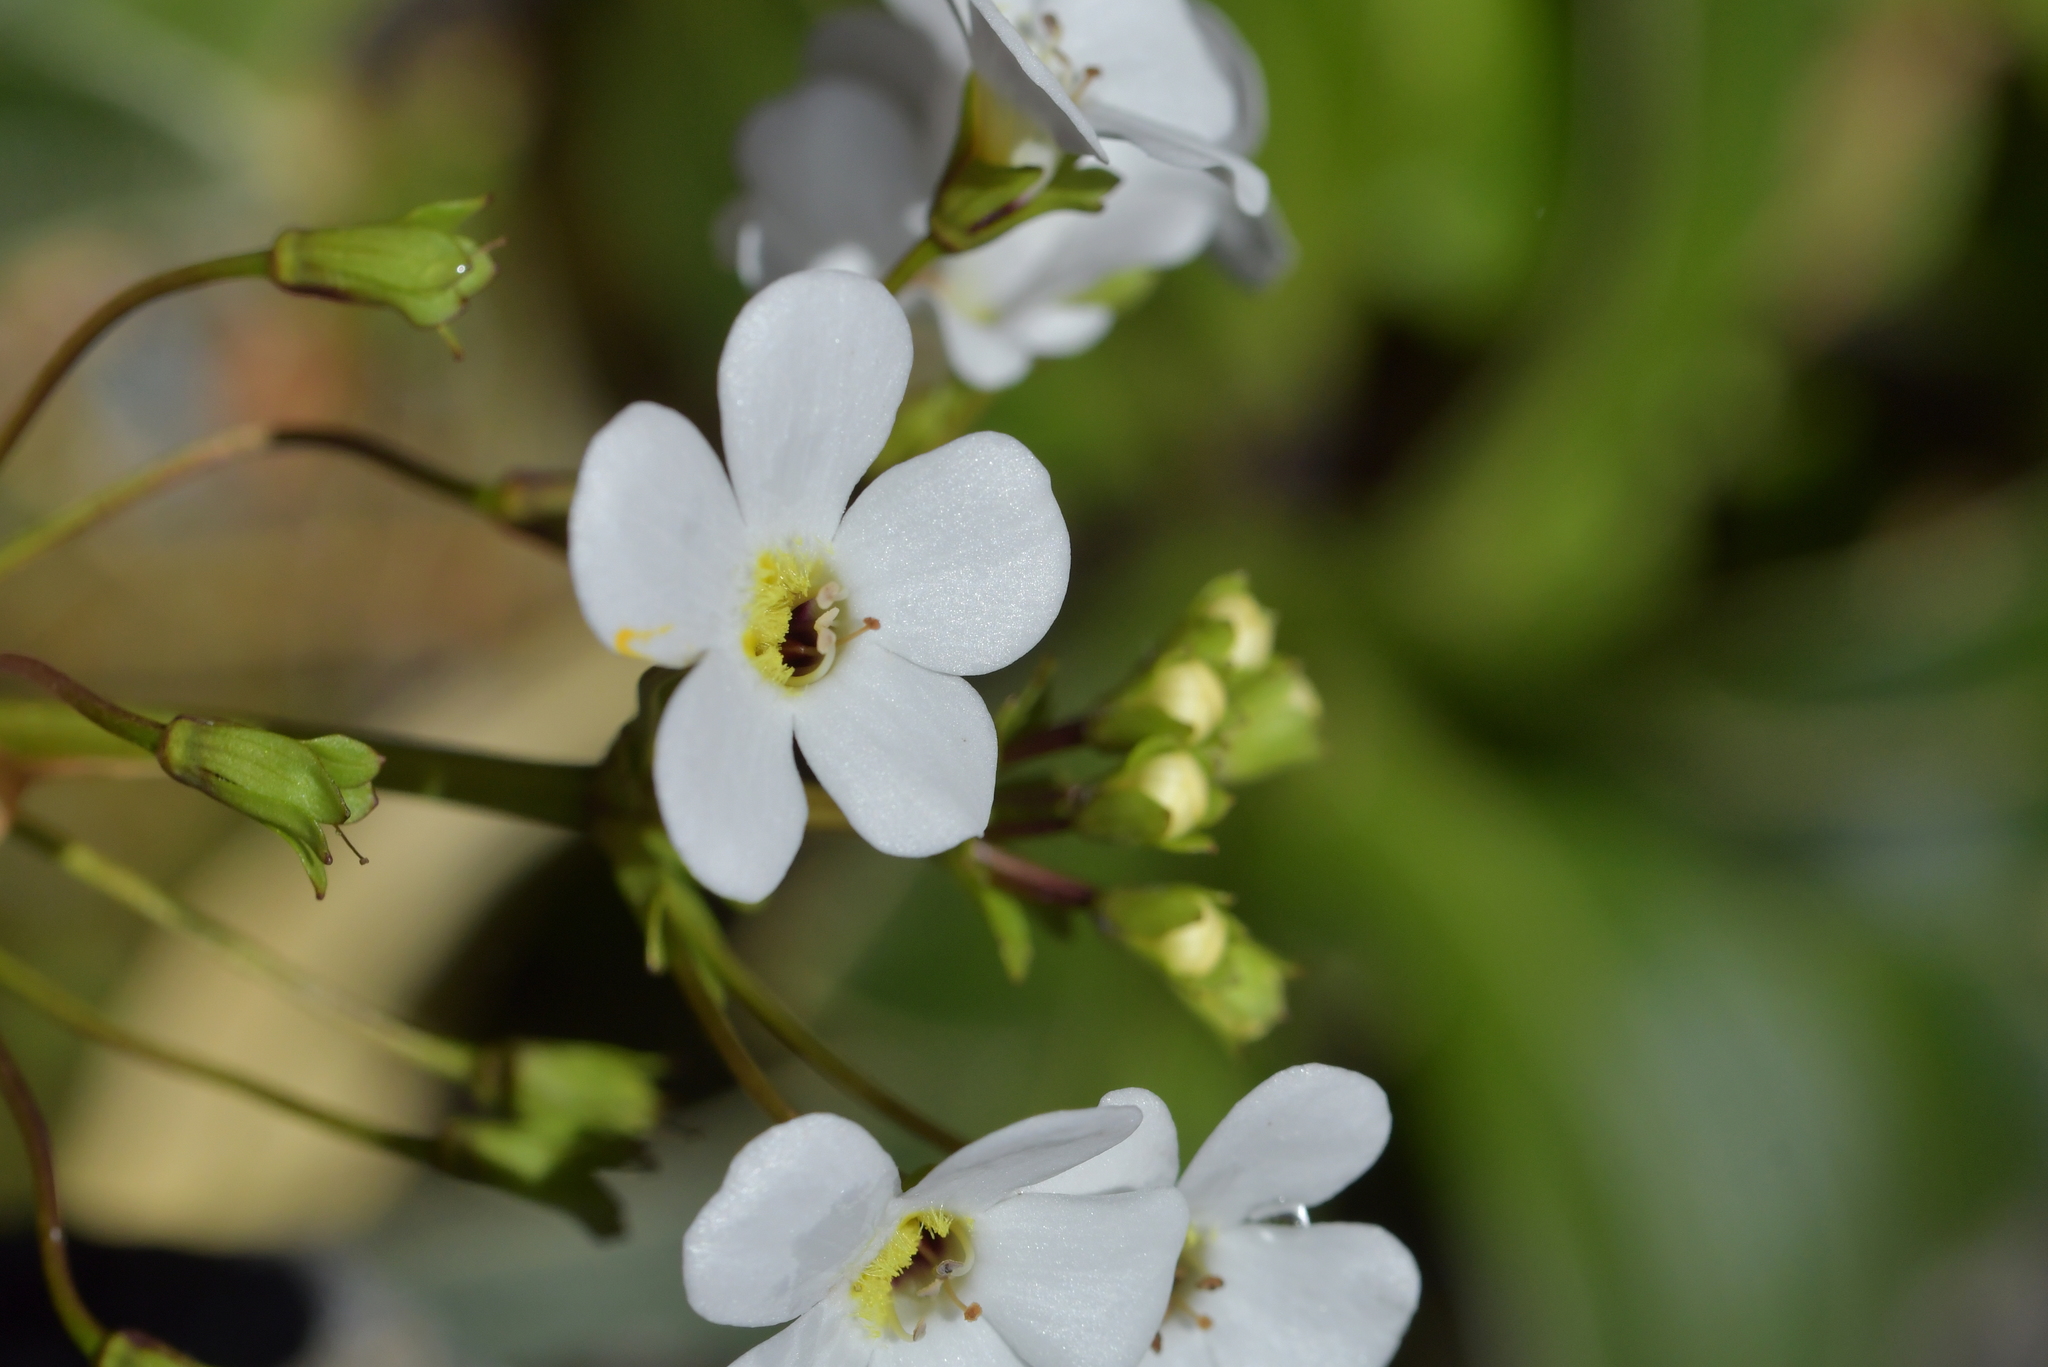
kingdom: Plantae
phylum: Tracheophyta
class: Magnoliopsida
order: Lamiales
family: Plantaginaceae
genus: Ourisia
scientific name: Ourisia macrocarpa
